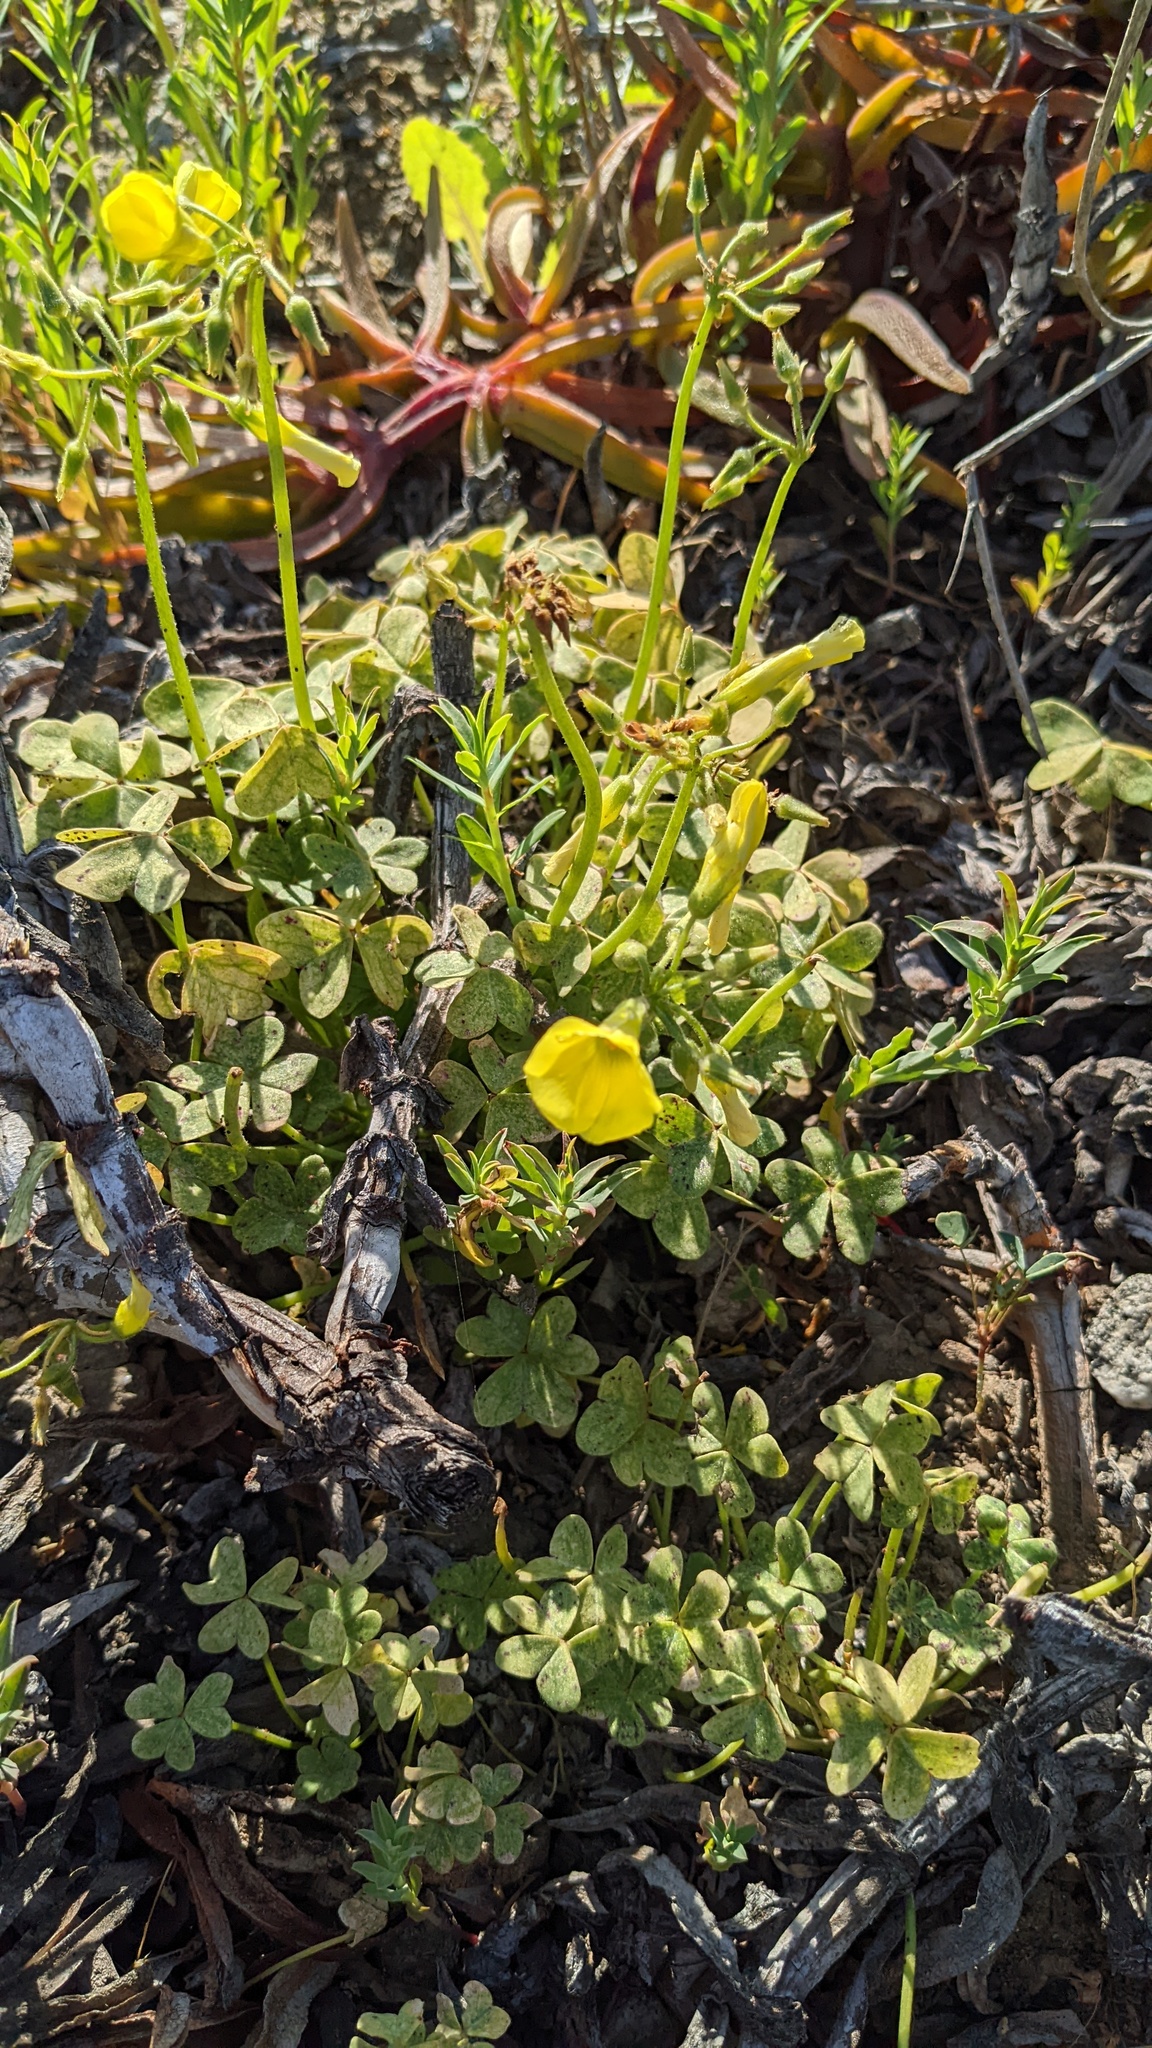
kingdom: Plantae
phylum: Tracheophyta
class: Magnoliopsida
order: Oxalidales
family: Oxalidaceae
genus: Oxalis
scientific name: Oxalis pes-caprae
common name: Bermuda-buttercup
